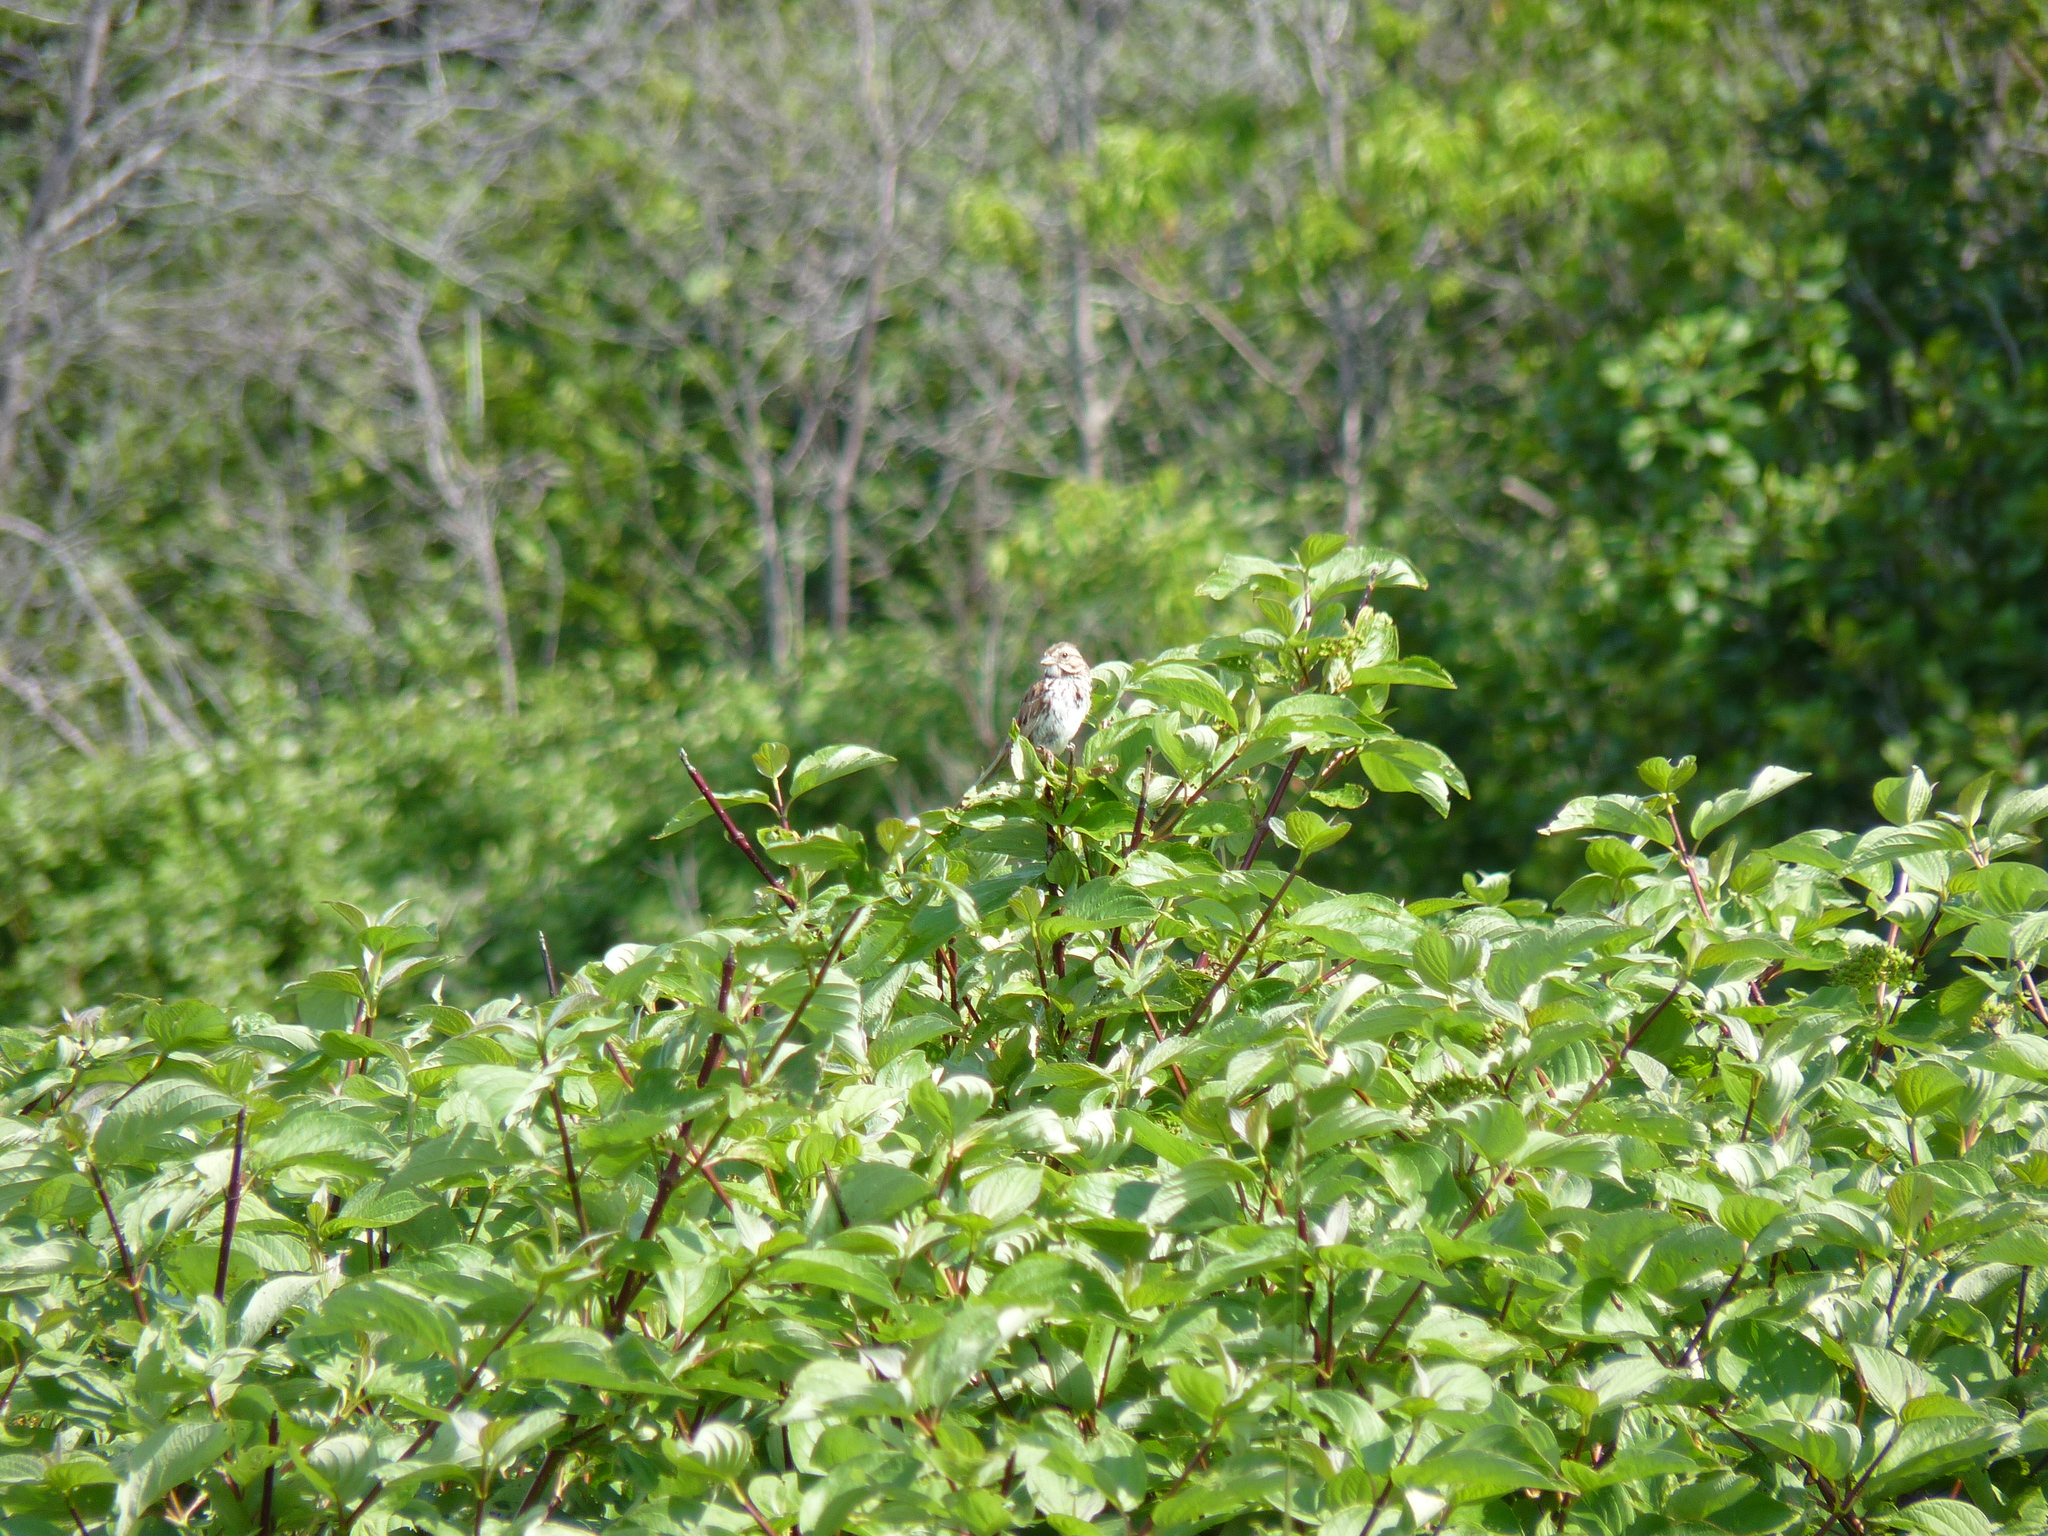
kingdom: Animalia
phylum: Chordata
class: Aves
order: Passeriformes
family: Passerellidae
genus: Melospiza
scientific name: Melospiza melodia
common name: Song sparrow
